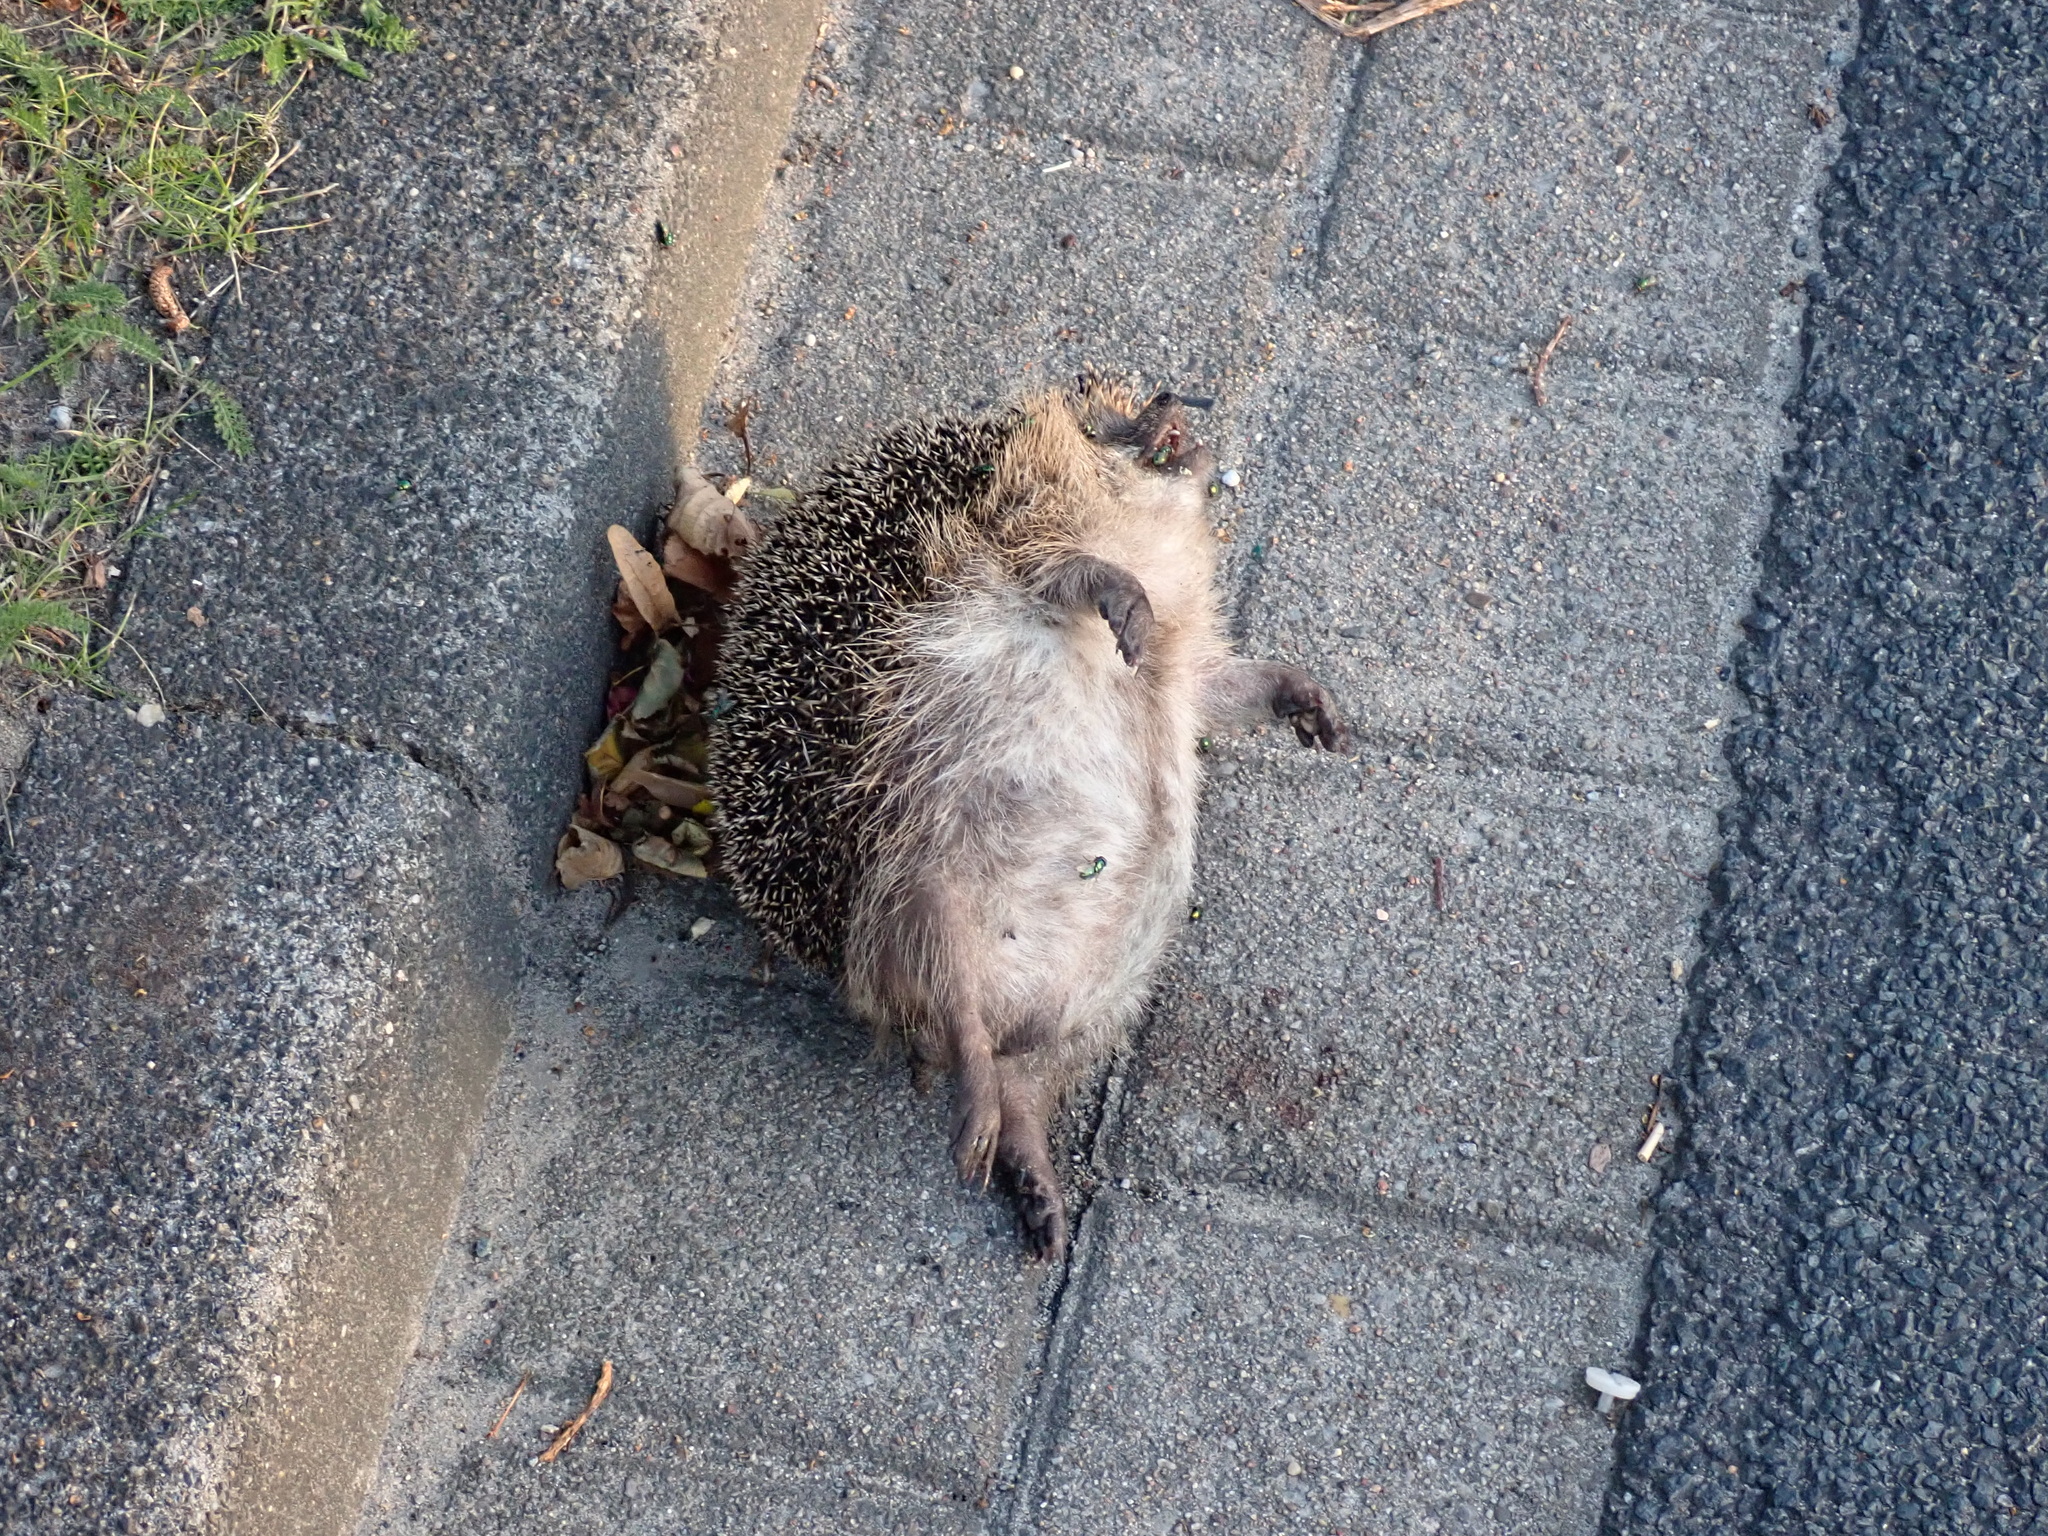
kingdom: Animalia
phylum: Chordata
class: Mammalia
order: Erinaceomorpha
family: Erinaceidae
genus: Erinaceus
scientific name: Erinaceus europaeus
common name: West european hedgehog
